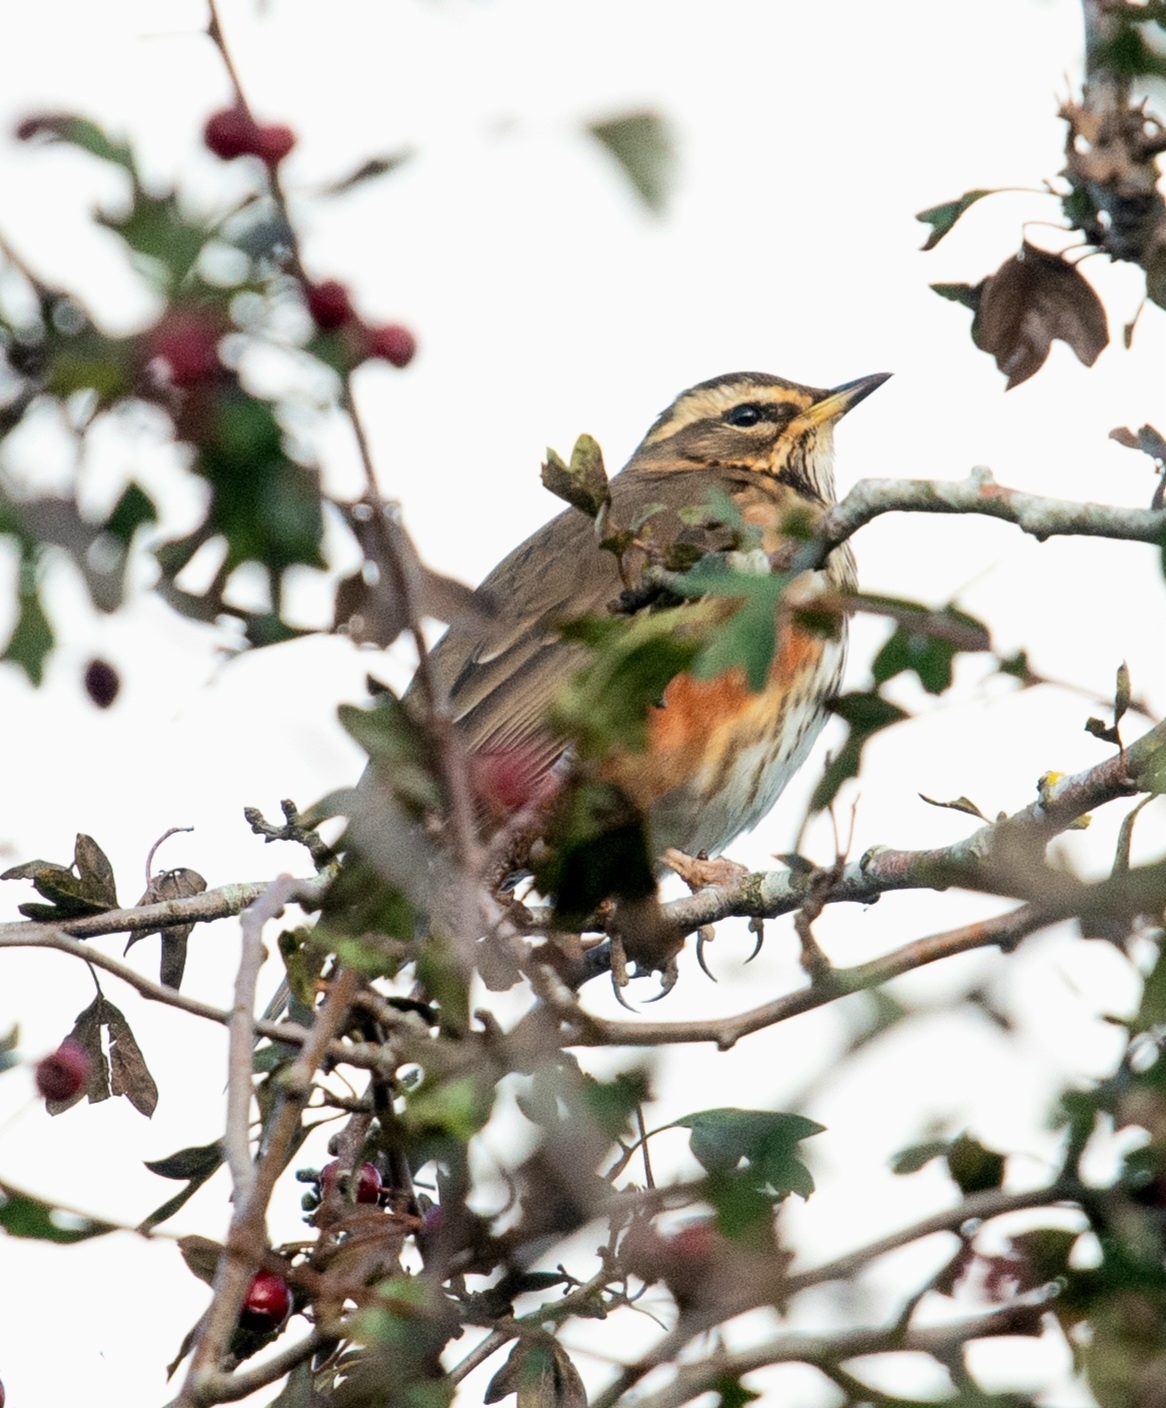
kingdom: Animalia
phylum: Chordata
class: Aves
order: Passeriformes
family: Turdidae
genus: Turdus
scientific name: Turdus iliacus
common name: Redwing
